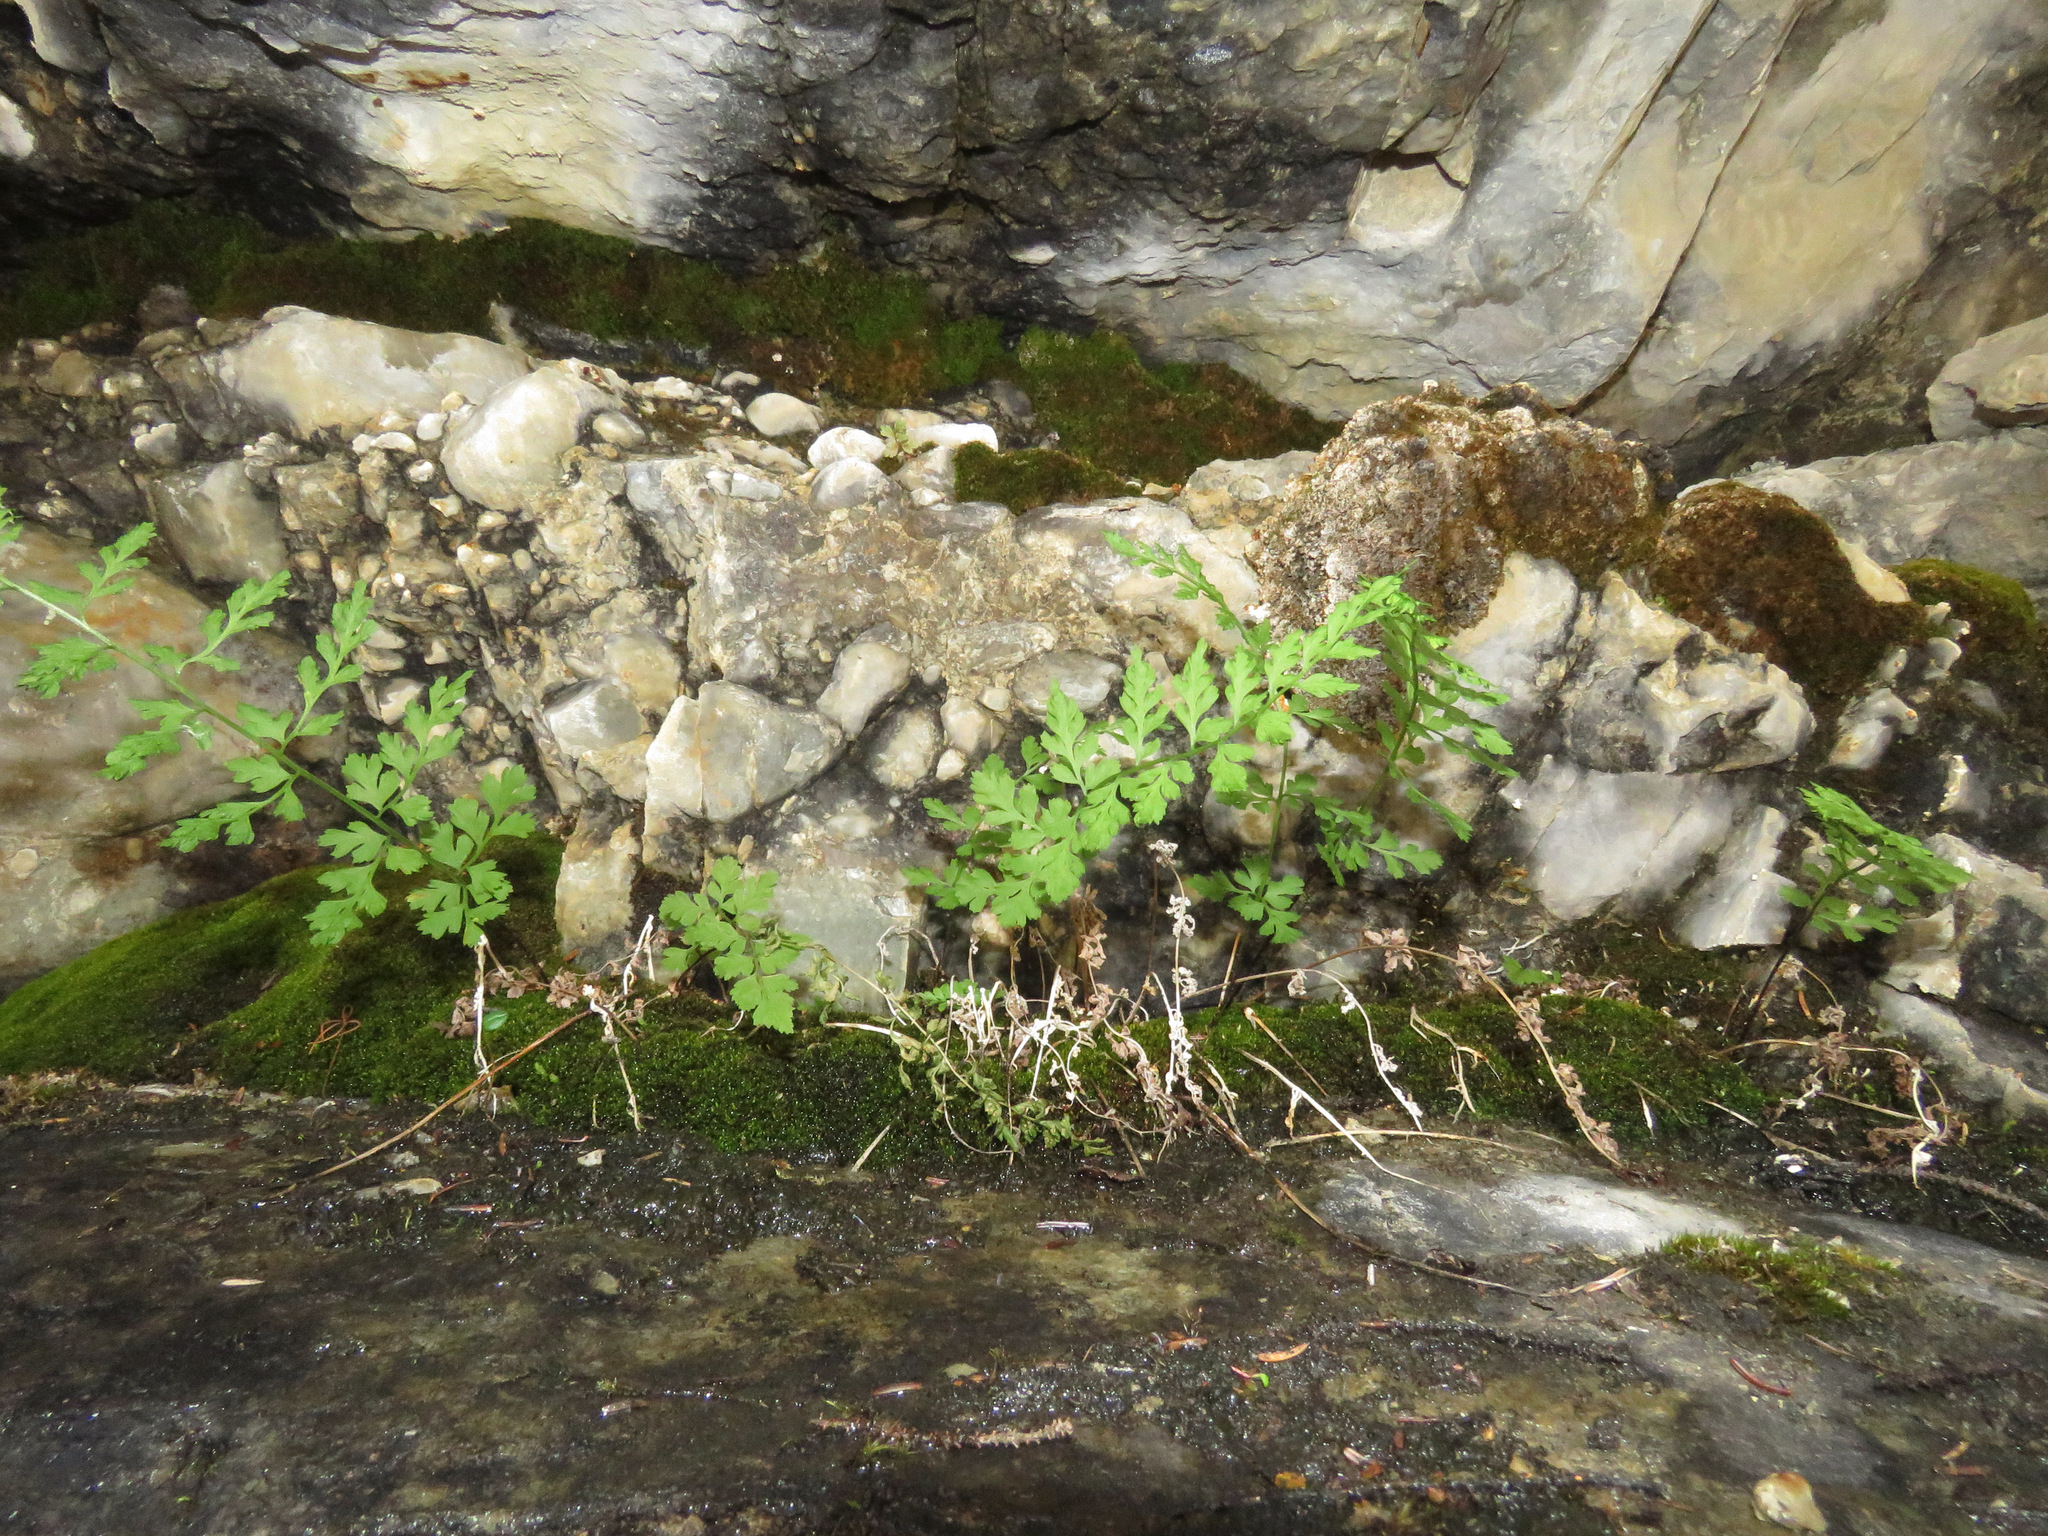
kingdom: Plantae
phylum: Tracheophyta
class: Polypodiopsida
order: Polypodiales
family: Cystopteridaceae
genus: Cystopteris
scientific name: Cystopteris fragilis
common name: Brittle bladder fern
